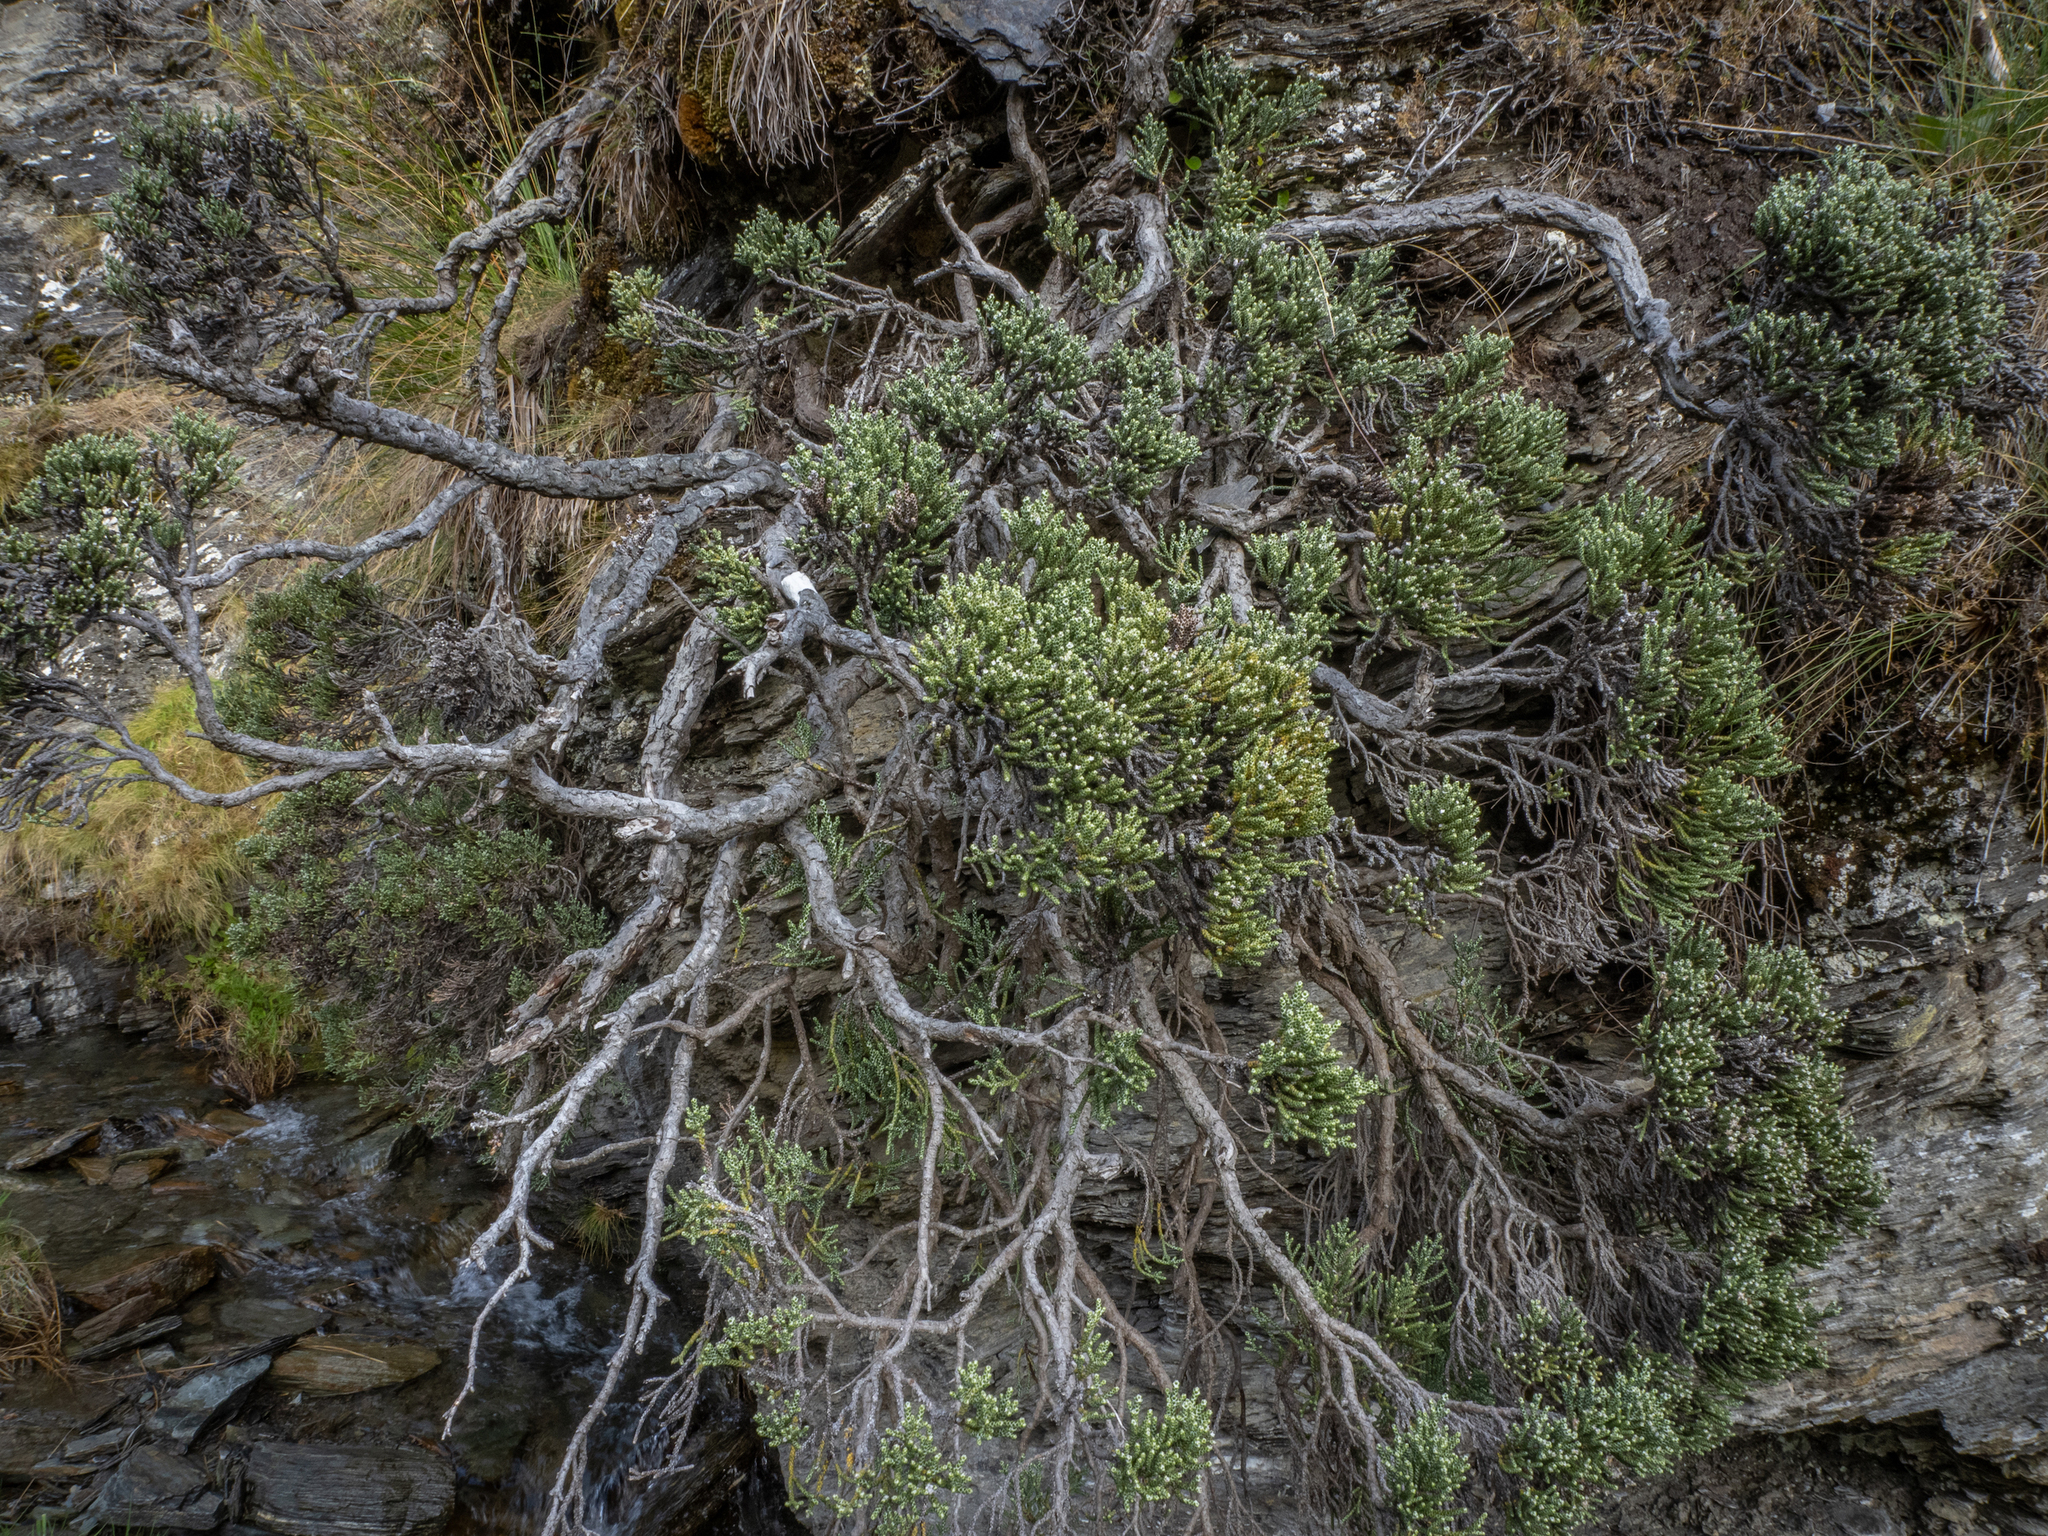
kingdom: Plantae
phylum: Tracheophyta
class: Magnoliopsida
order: Asterales
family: Asteraceae
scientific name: Asteraceae
